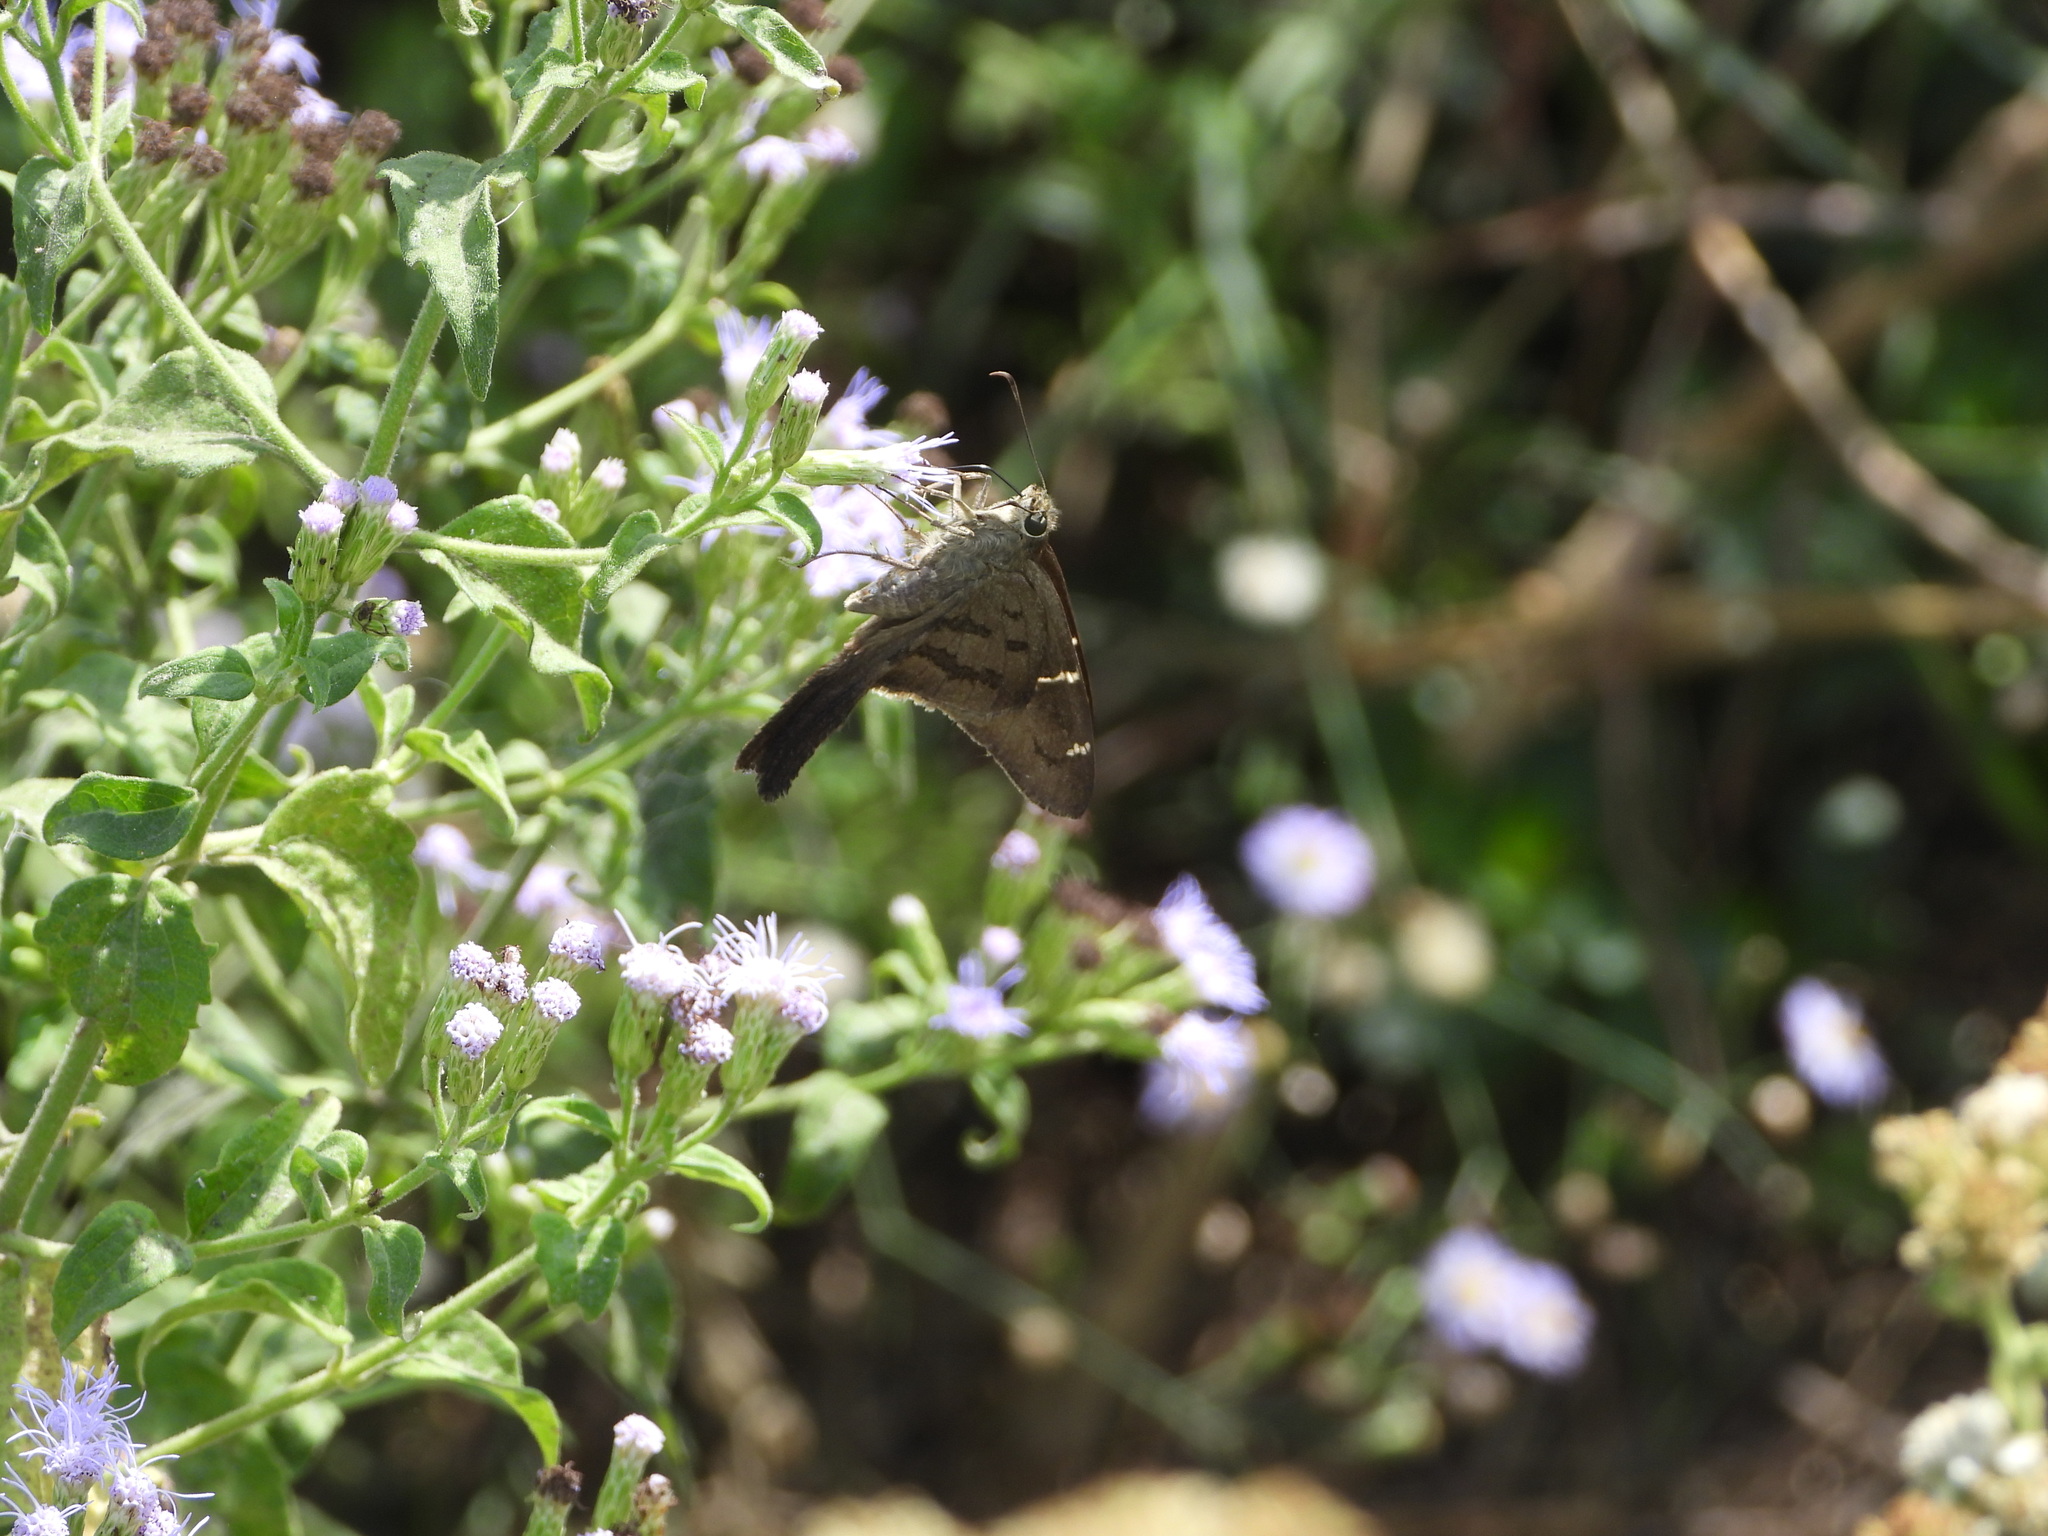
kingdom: Animalia
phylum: Arthropoda
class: Insecta
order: Lepidoptera
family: Hesperiidae
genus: Urbanus
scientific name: Urbanus procne
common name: Brown longtail
